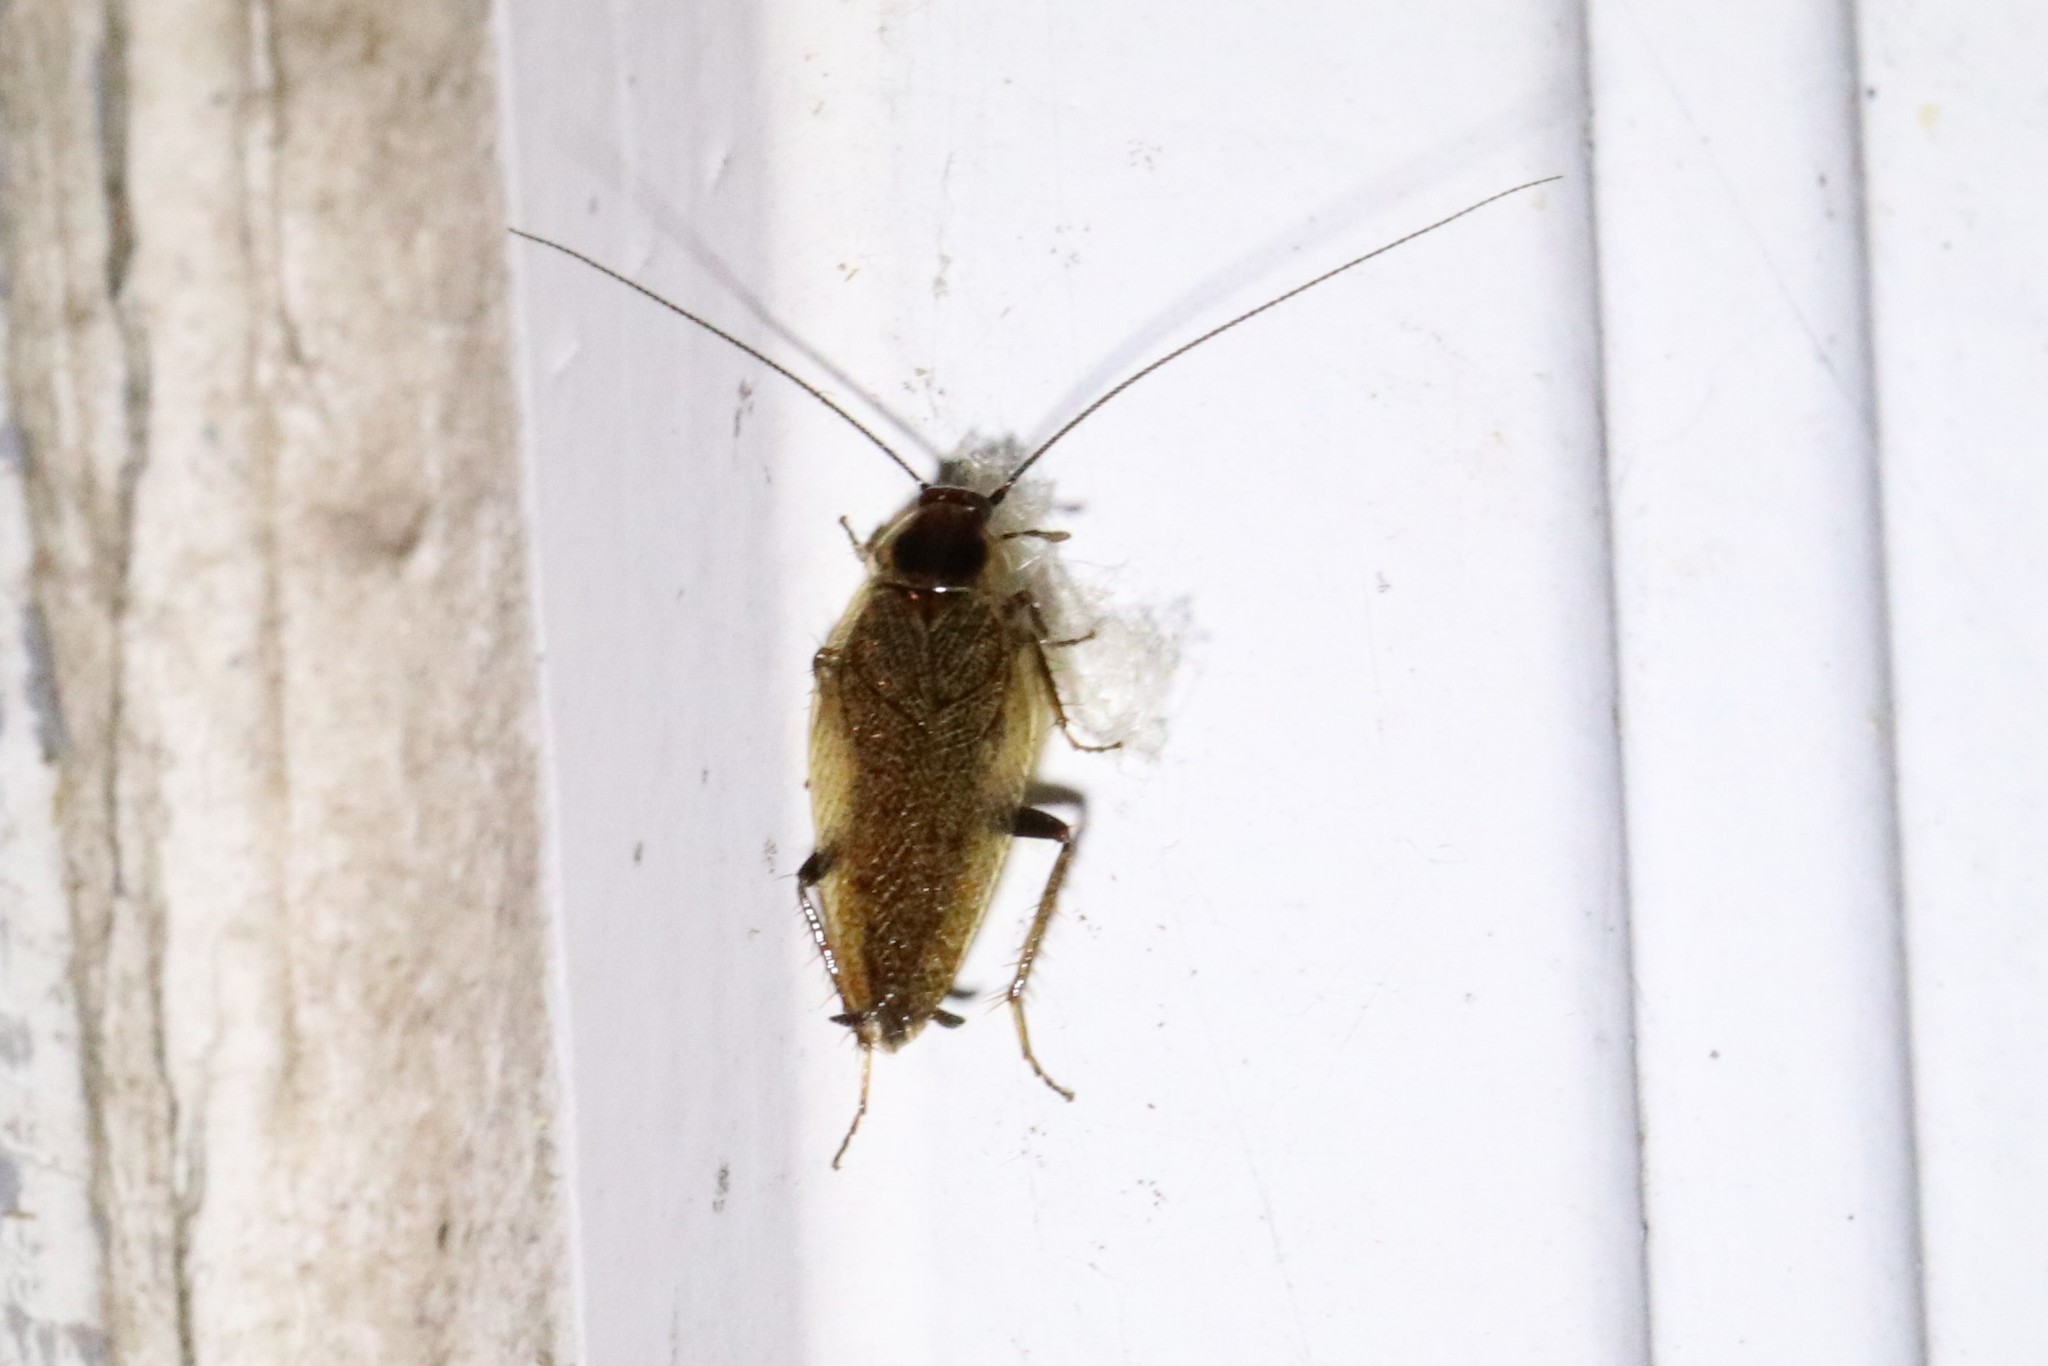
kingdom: Animalia
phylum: Arthropoda
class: Insecta
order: Blattodea
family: Ectobiidae
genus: Ectobius
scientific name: Ectobius lapponicus
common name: Dusky cockroach
